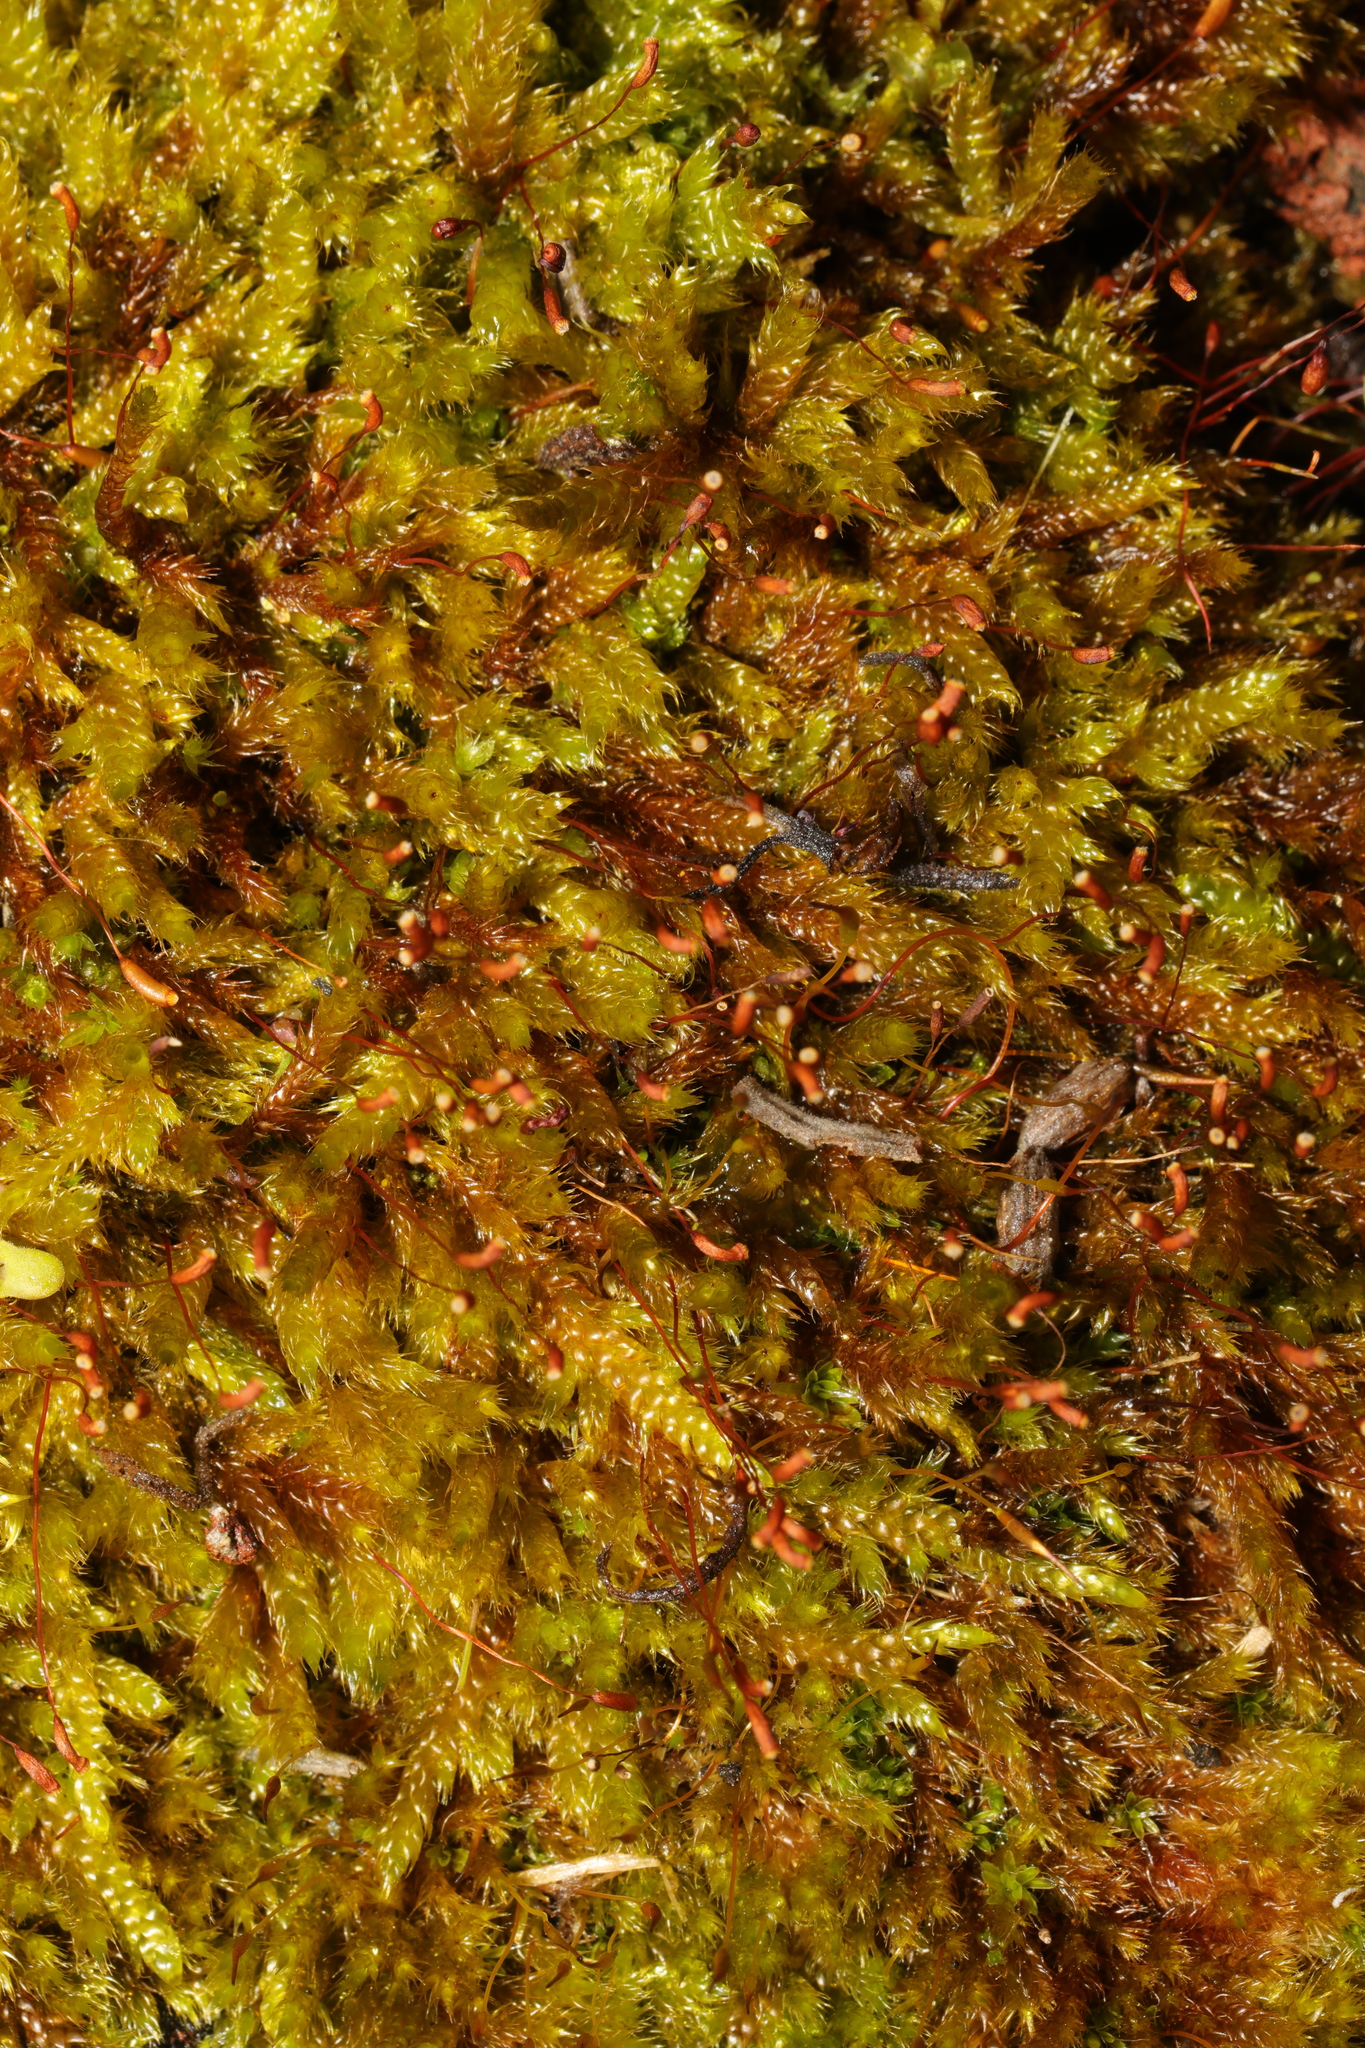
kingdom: Plantae
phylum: Bryophyta
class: Bryopsida
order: Hypnales
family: Hypnaceae
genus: Hypnum
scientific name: Hypnum cupressiforme
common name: Cypress-leaved plait-moss
